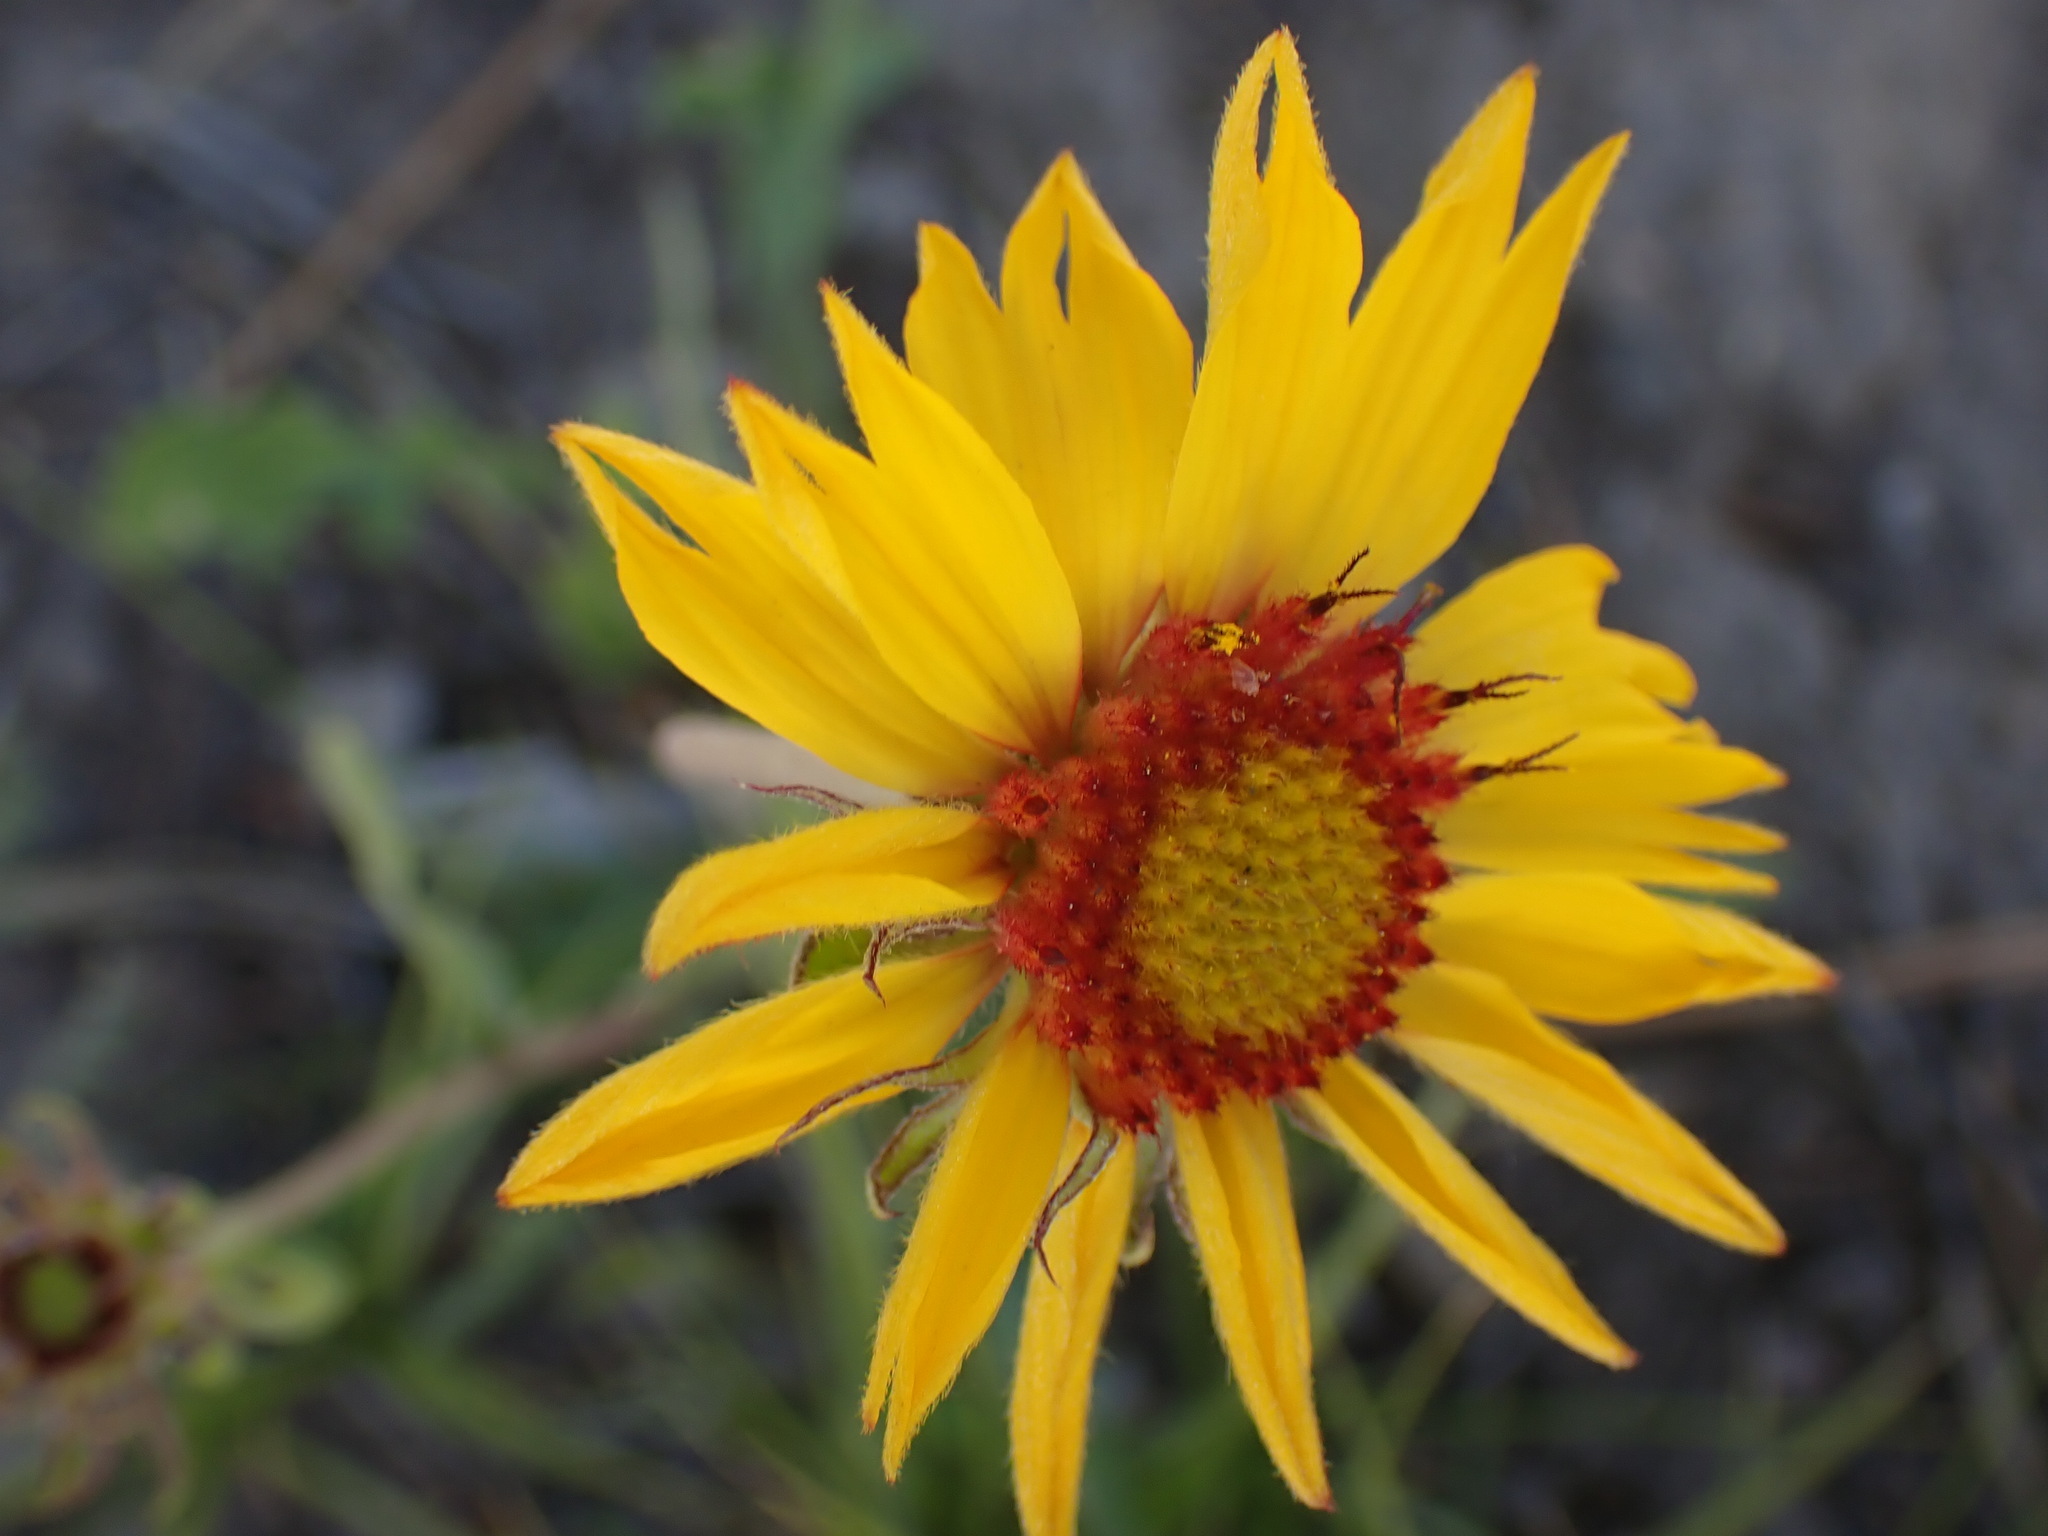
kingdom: Plantae
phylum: Tracheophyta
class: Magnoliopsida
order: Asterales
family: Asteraceae
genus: Gaillardia
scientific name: Gaillardia aristata
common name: Blanket-flower
